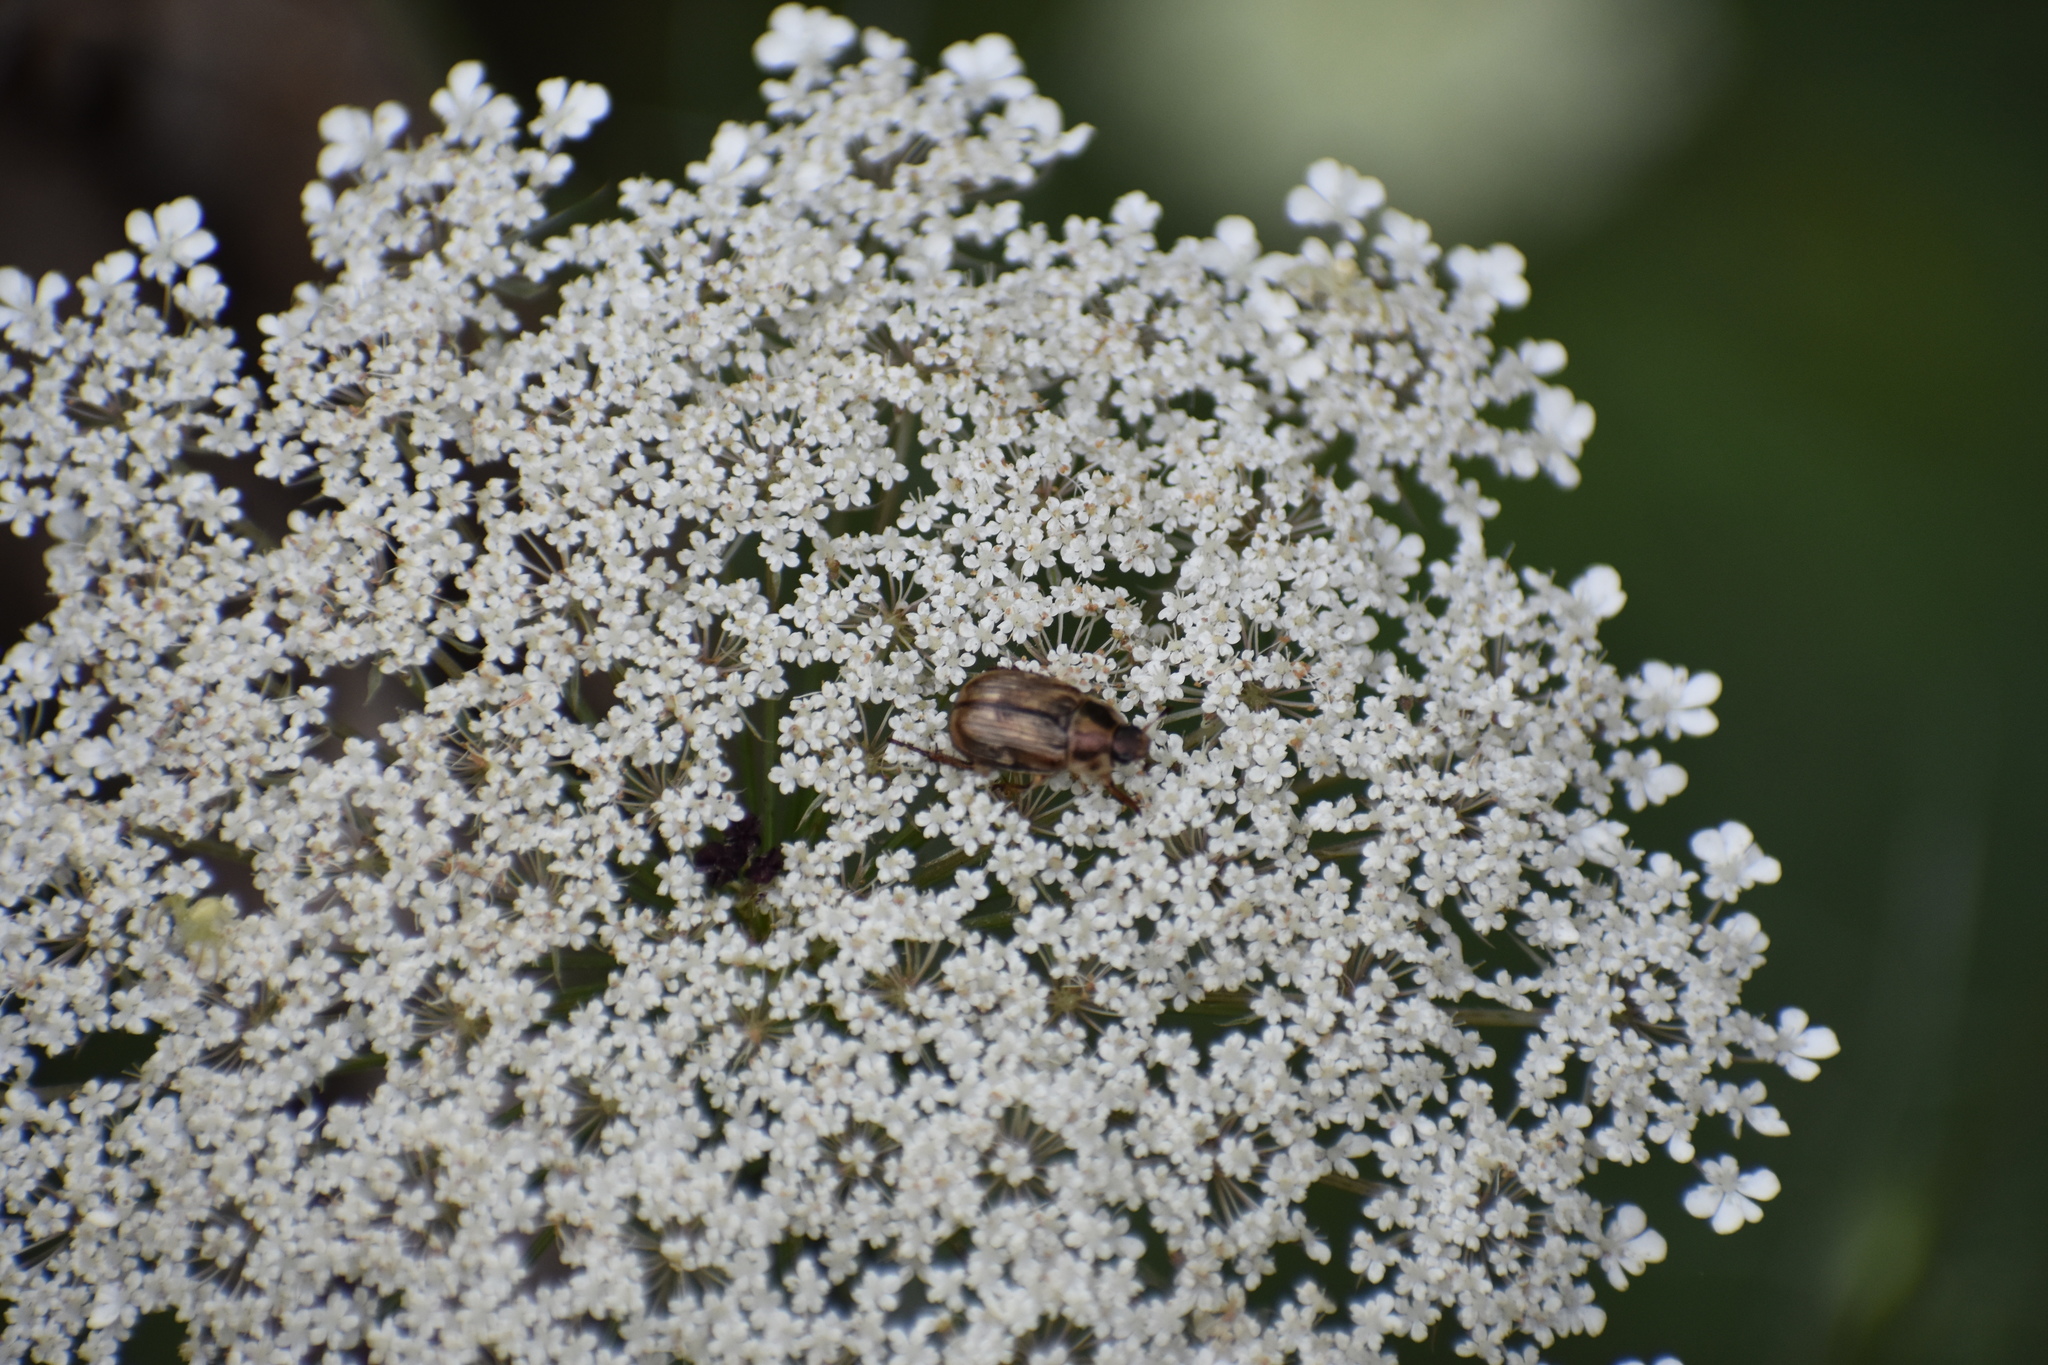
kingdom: Animalia
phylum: Arthropoda
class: Insecta
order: Coleoptera
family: Scarabaeidae
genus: Exomala
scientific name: Exomala orientalis
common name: Oriental beetle
